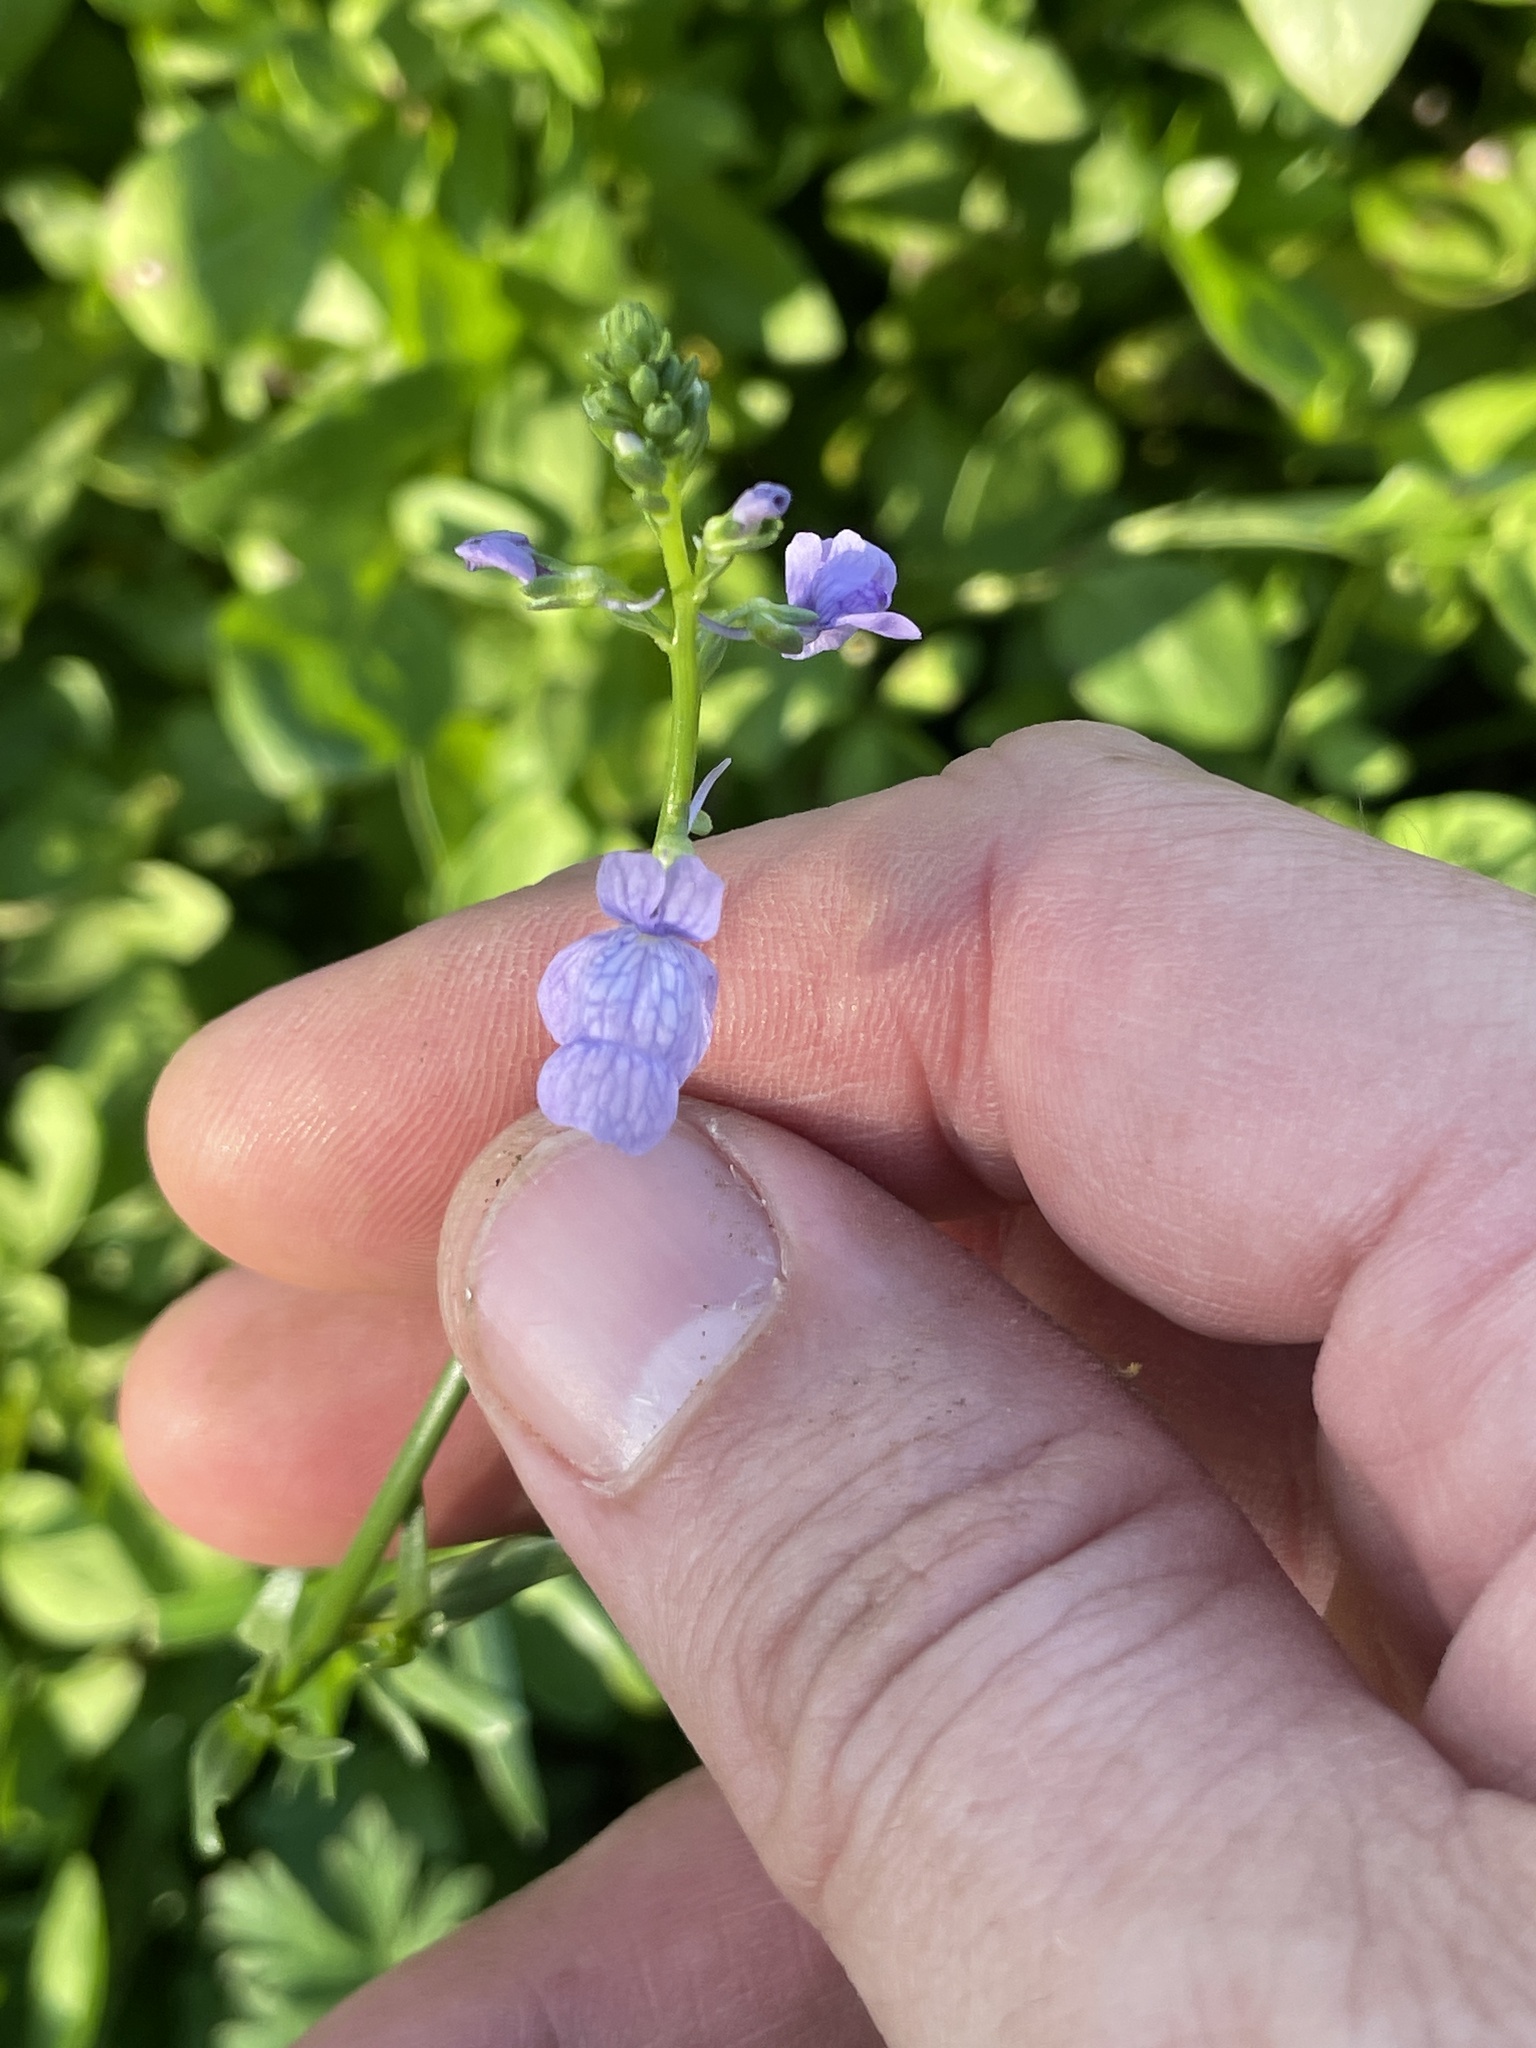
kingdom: Plantae
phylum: Tracheophyta
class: Magnoliopsida
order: Lamiales
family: Plantaginaceae
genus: Nuttallanthus
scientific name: Nuttallanthus texanus
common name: Texas toadflax
